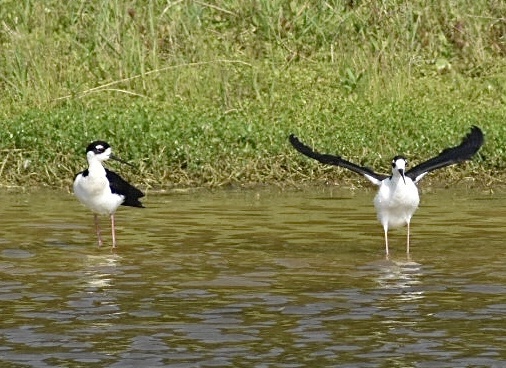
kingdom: Animalia
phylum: Chordata
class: Aves
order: Charadriiformes
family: Recurvirostridae
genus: Himantopus
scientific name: Himantopus mexicanus
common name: Black-necked stilt
